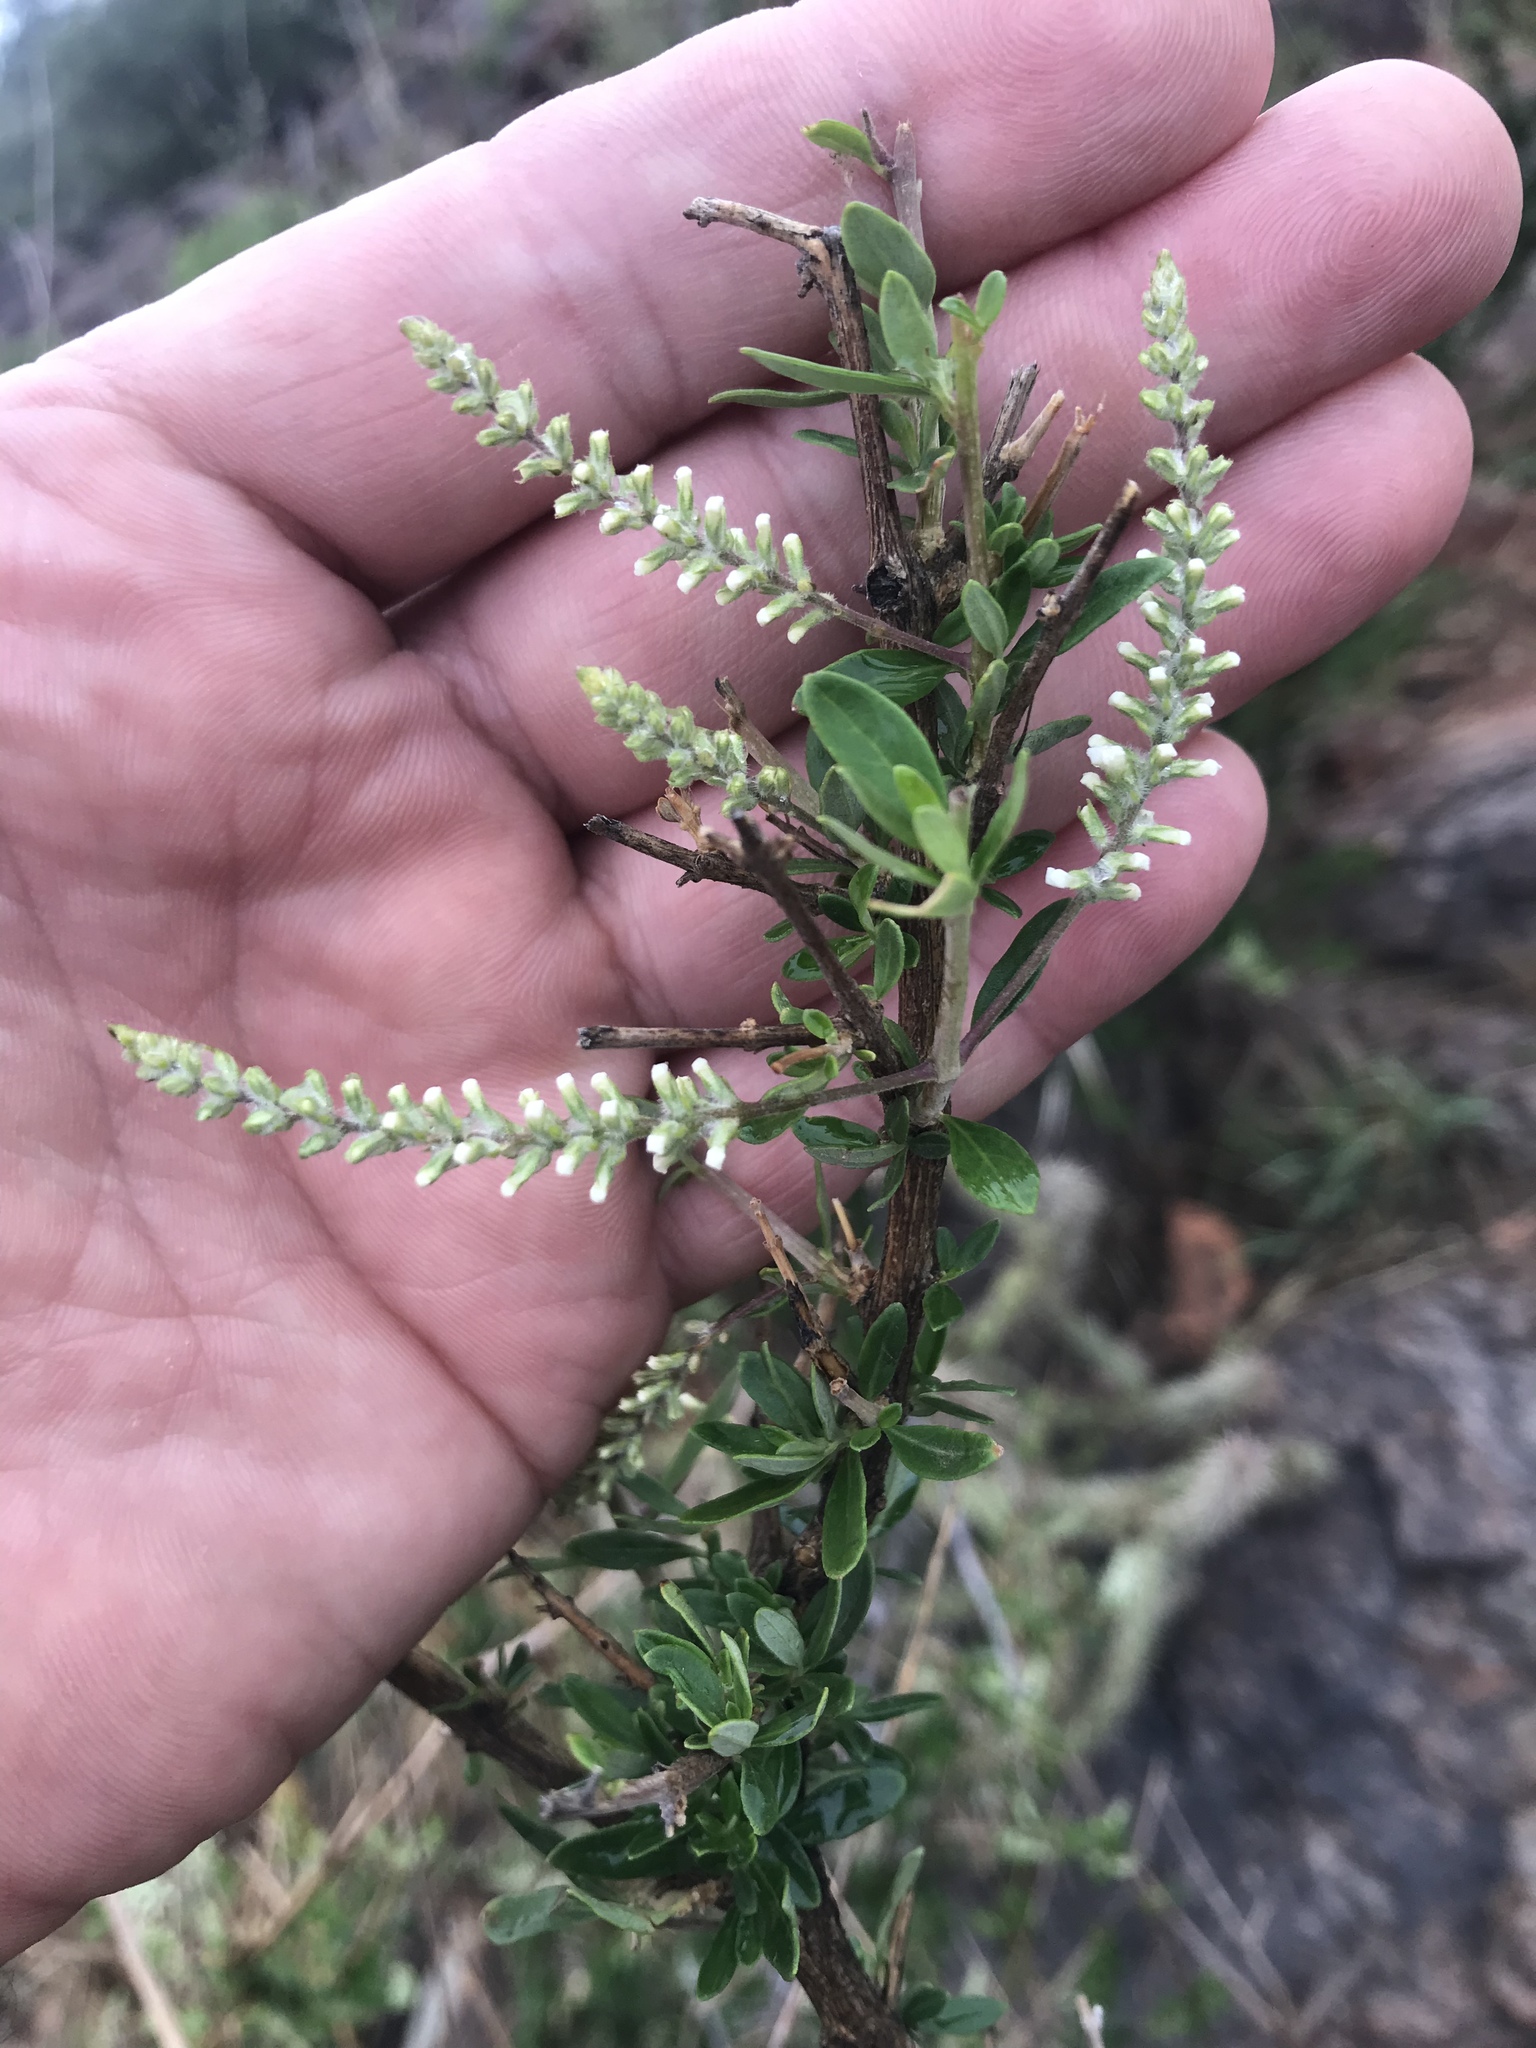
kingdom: Plantae
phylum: Tracheophyta
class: Magnoliopsida
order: Lamiales
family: Verbenaceae
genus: Aloysia
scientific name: Aloysia gratissima
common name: Common bee-brush
